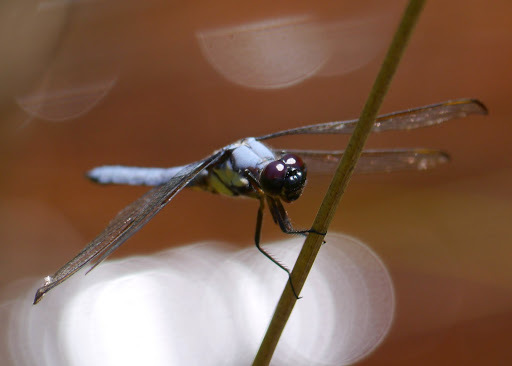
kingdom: Animalia
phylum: Arthropoda
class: Insecta
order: Odonata
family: Libellulidae
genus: Libellula
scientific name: Libellula flavida
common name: Yellow-sided skimmer
